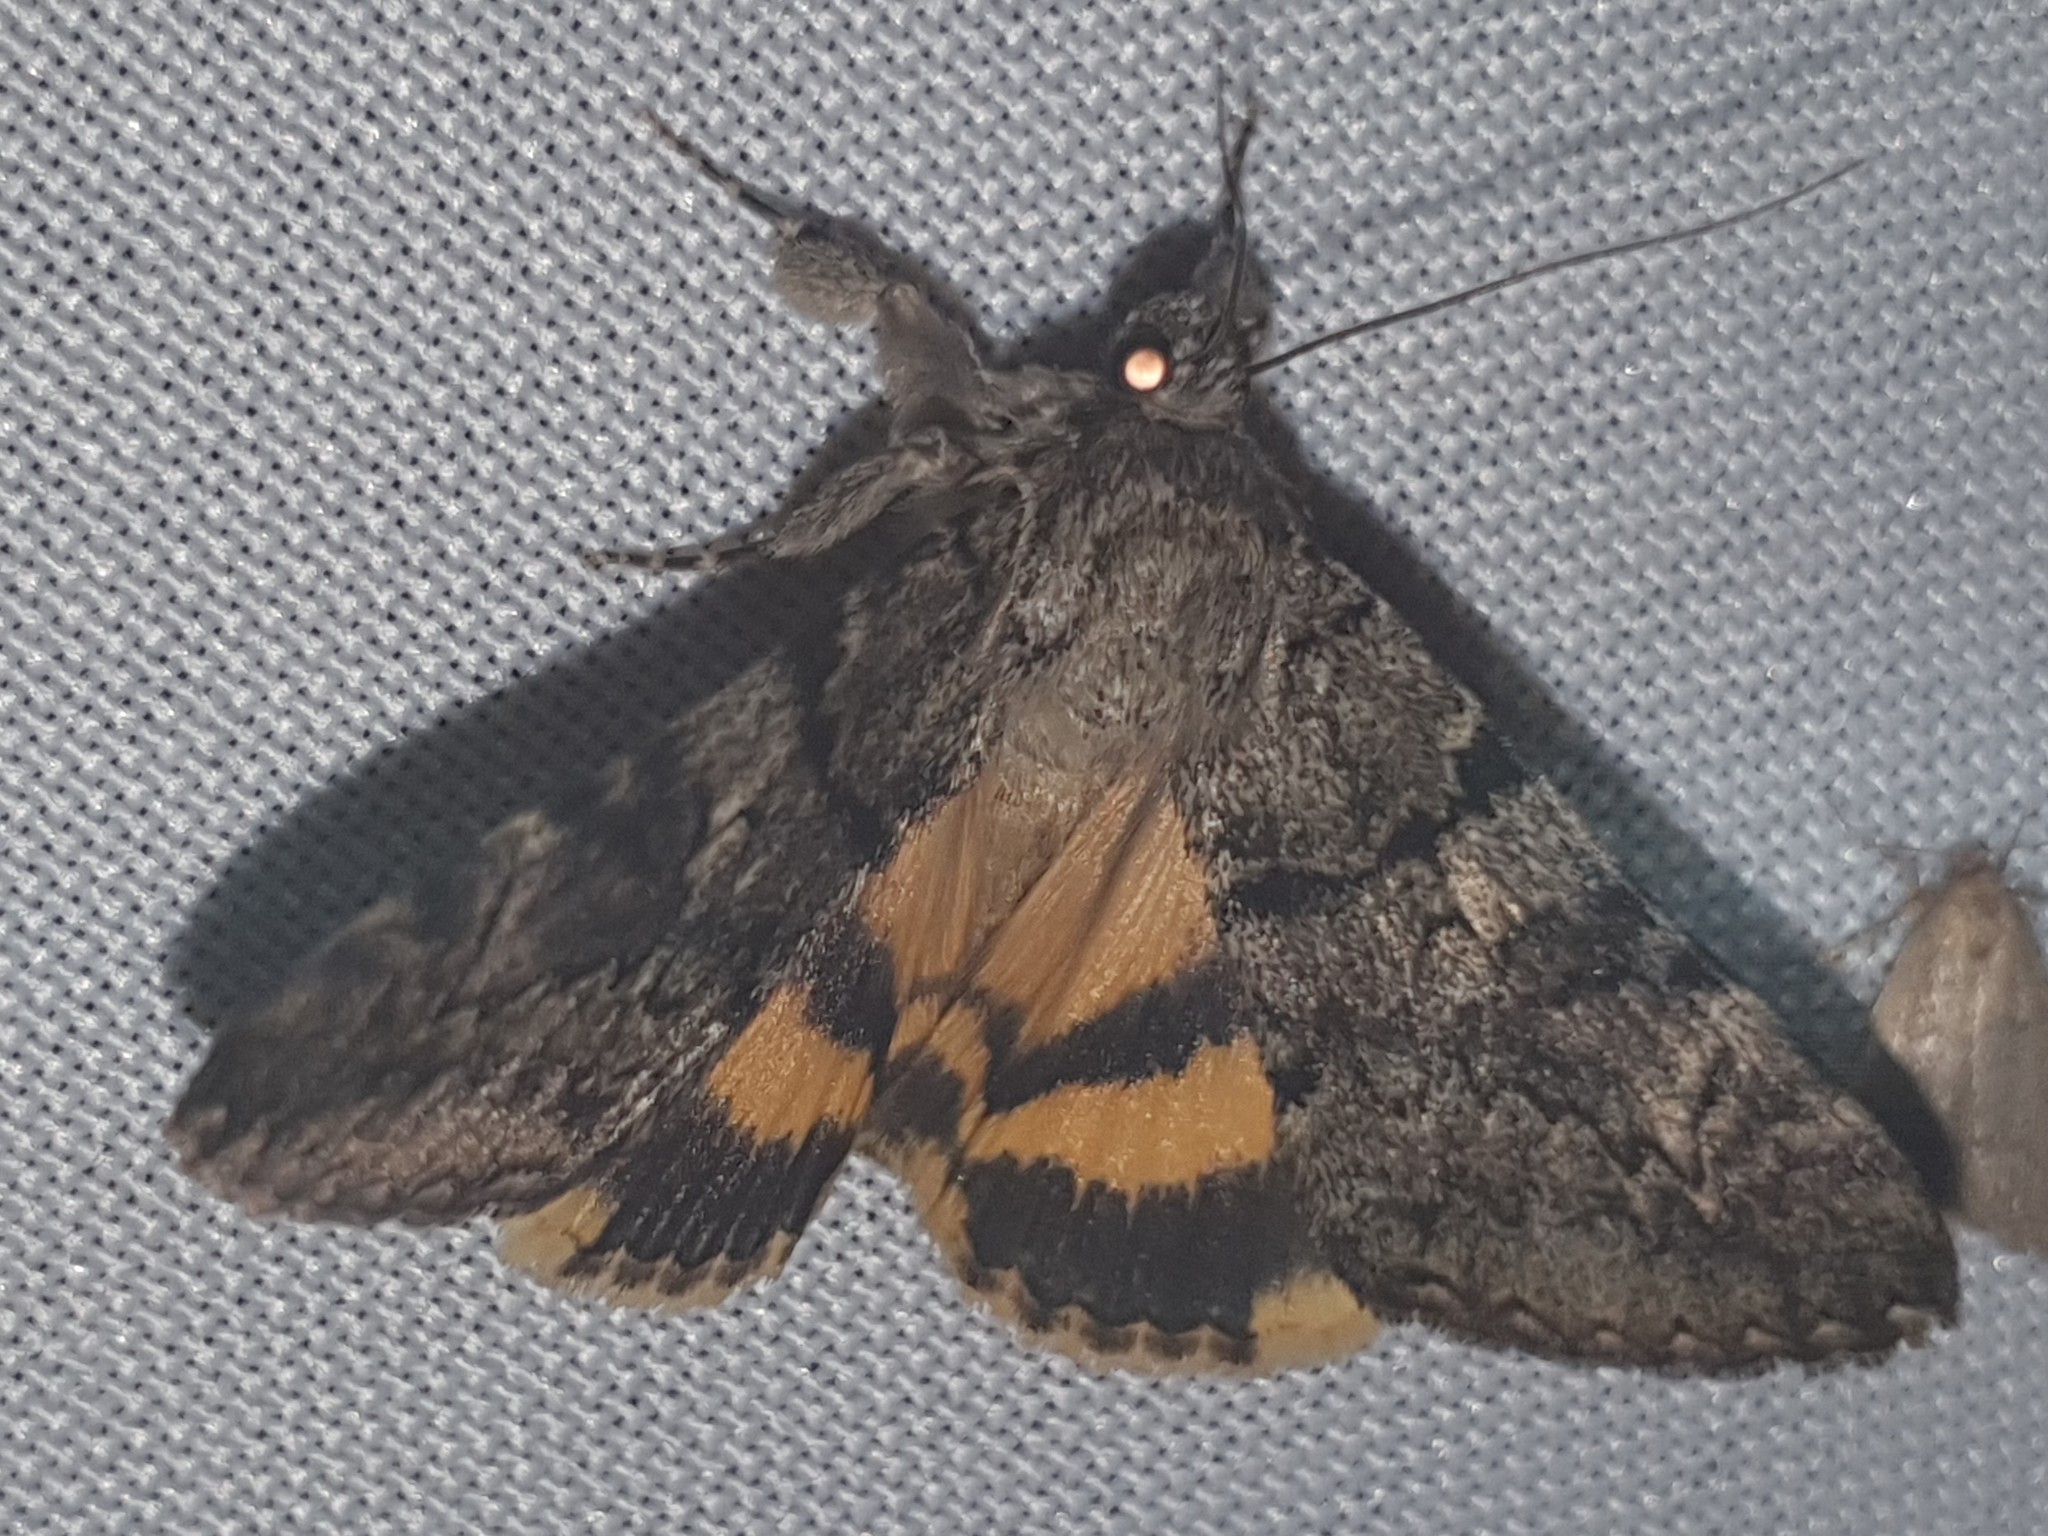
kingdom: Animalia
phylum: Arthropoda
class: Insecta
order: Lepidoptera
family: Erebidae
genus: Catocala
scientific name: Catocala nymphagoga
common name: Oak yellow underwing
